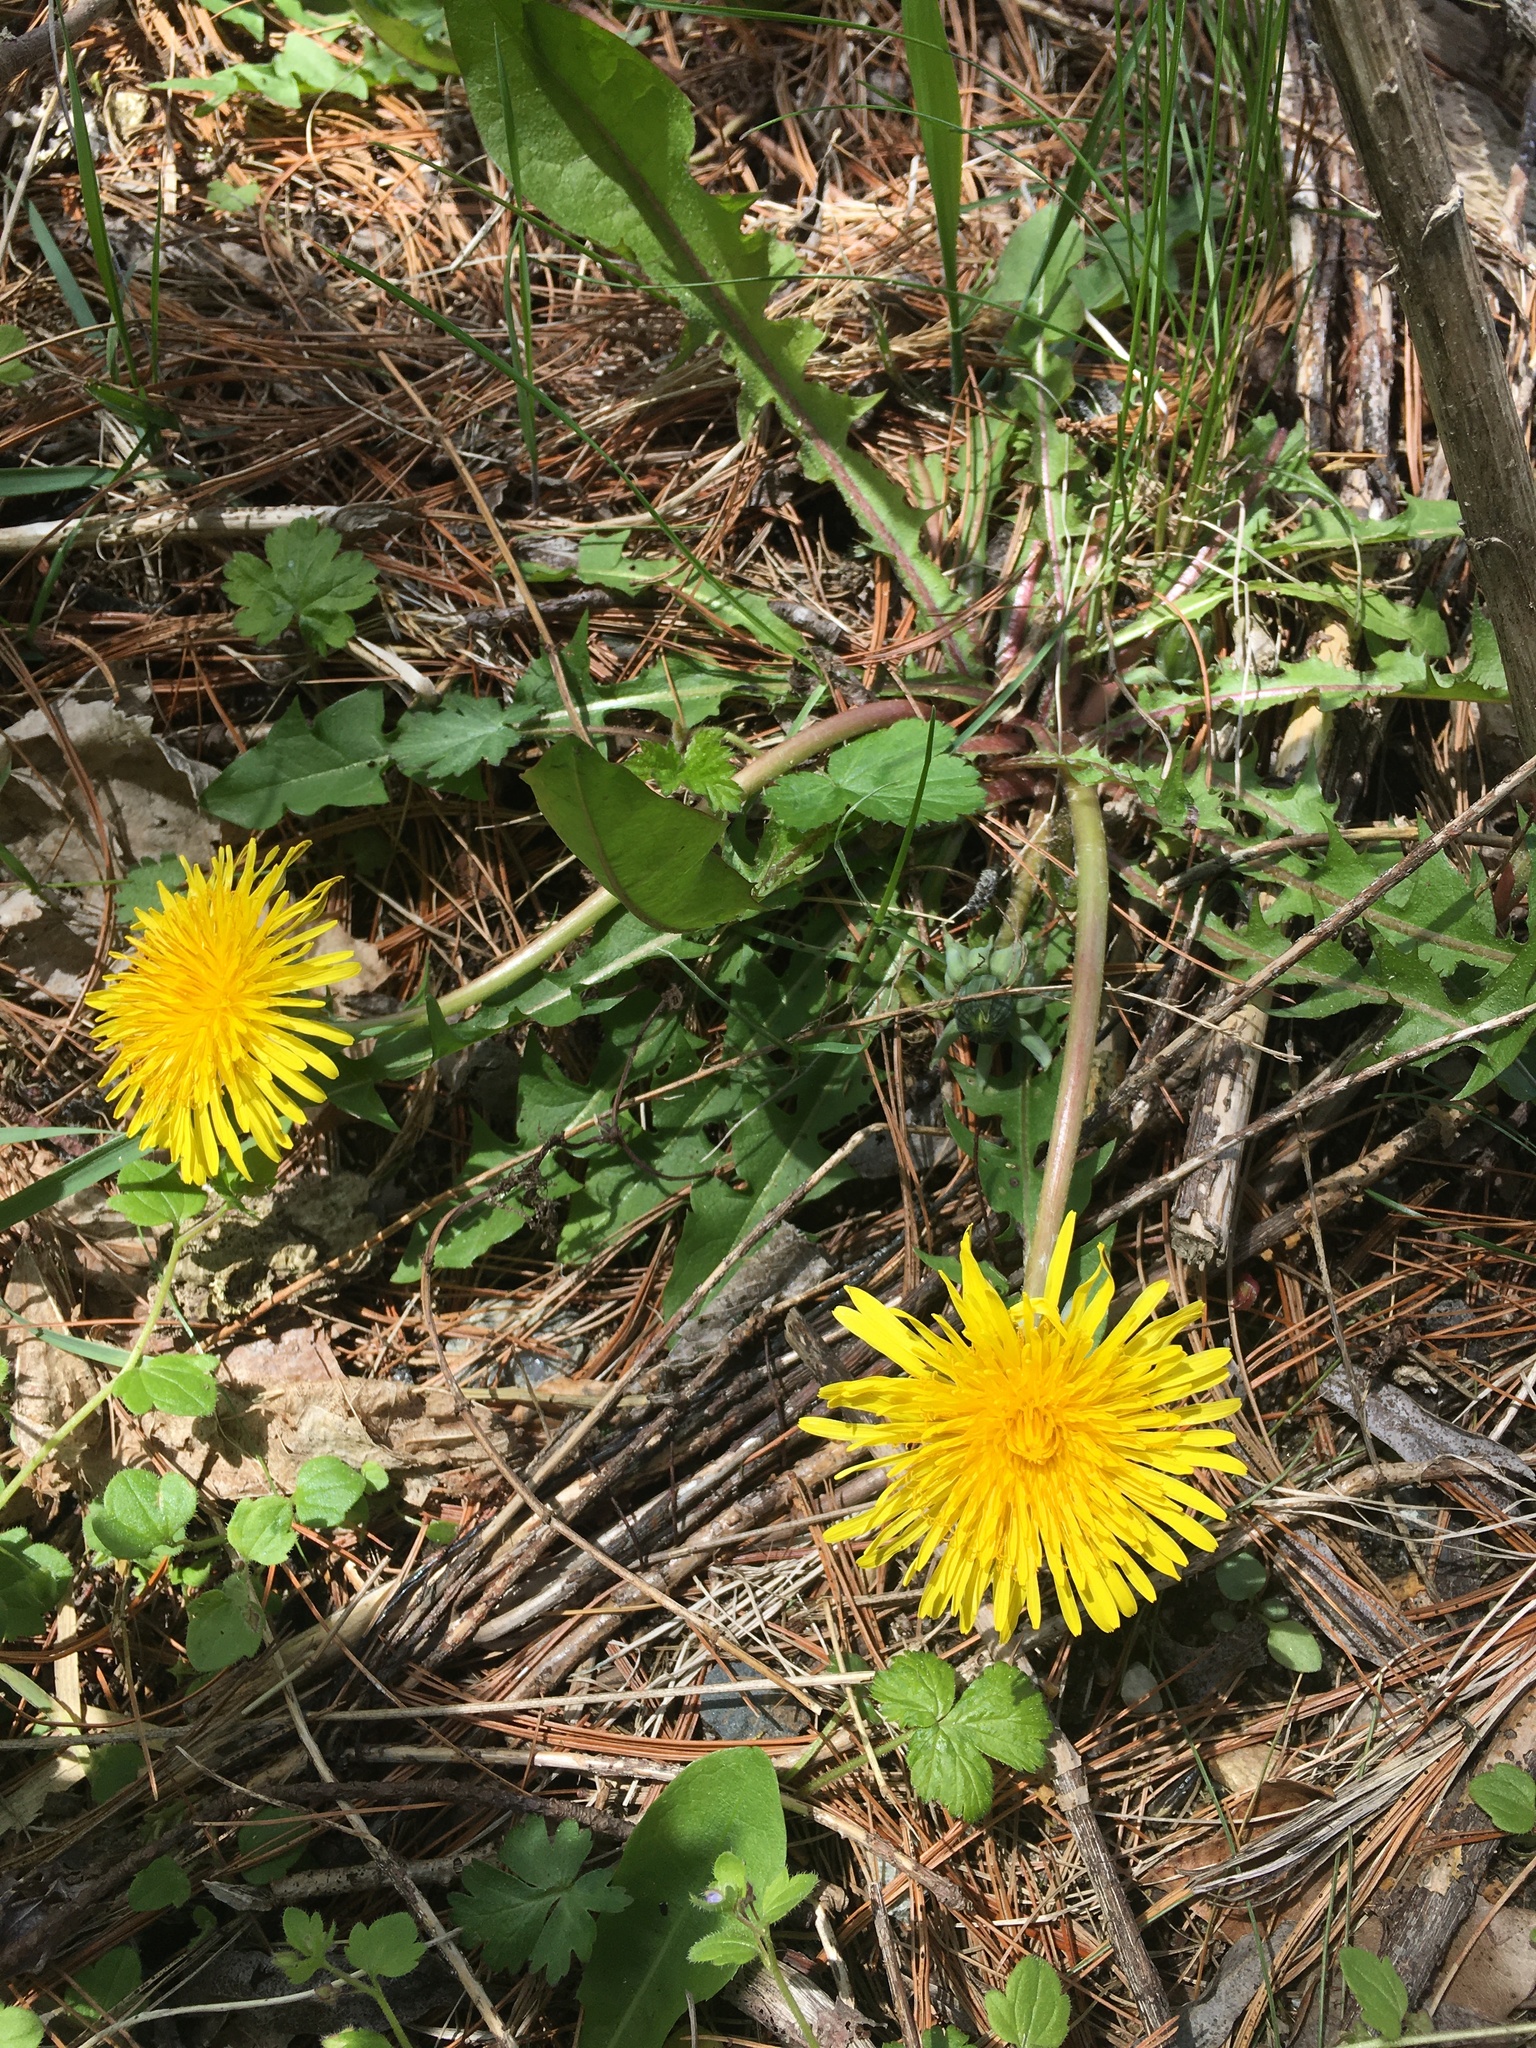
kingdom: Plantae
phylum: Tracheophyta
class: Magnoliopsida
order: Asterales
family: Asteraceae
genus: Taraxacum
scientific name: Taraxacum officinale
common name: Common dandelion
